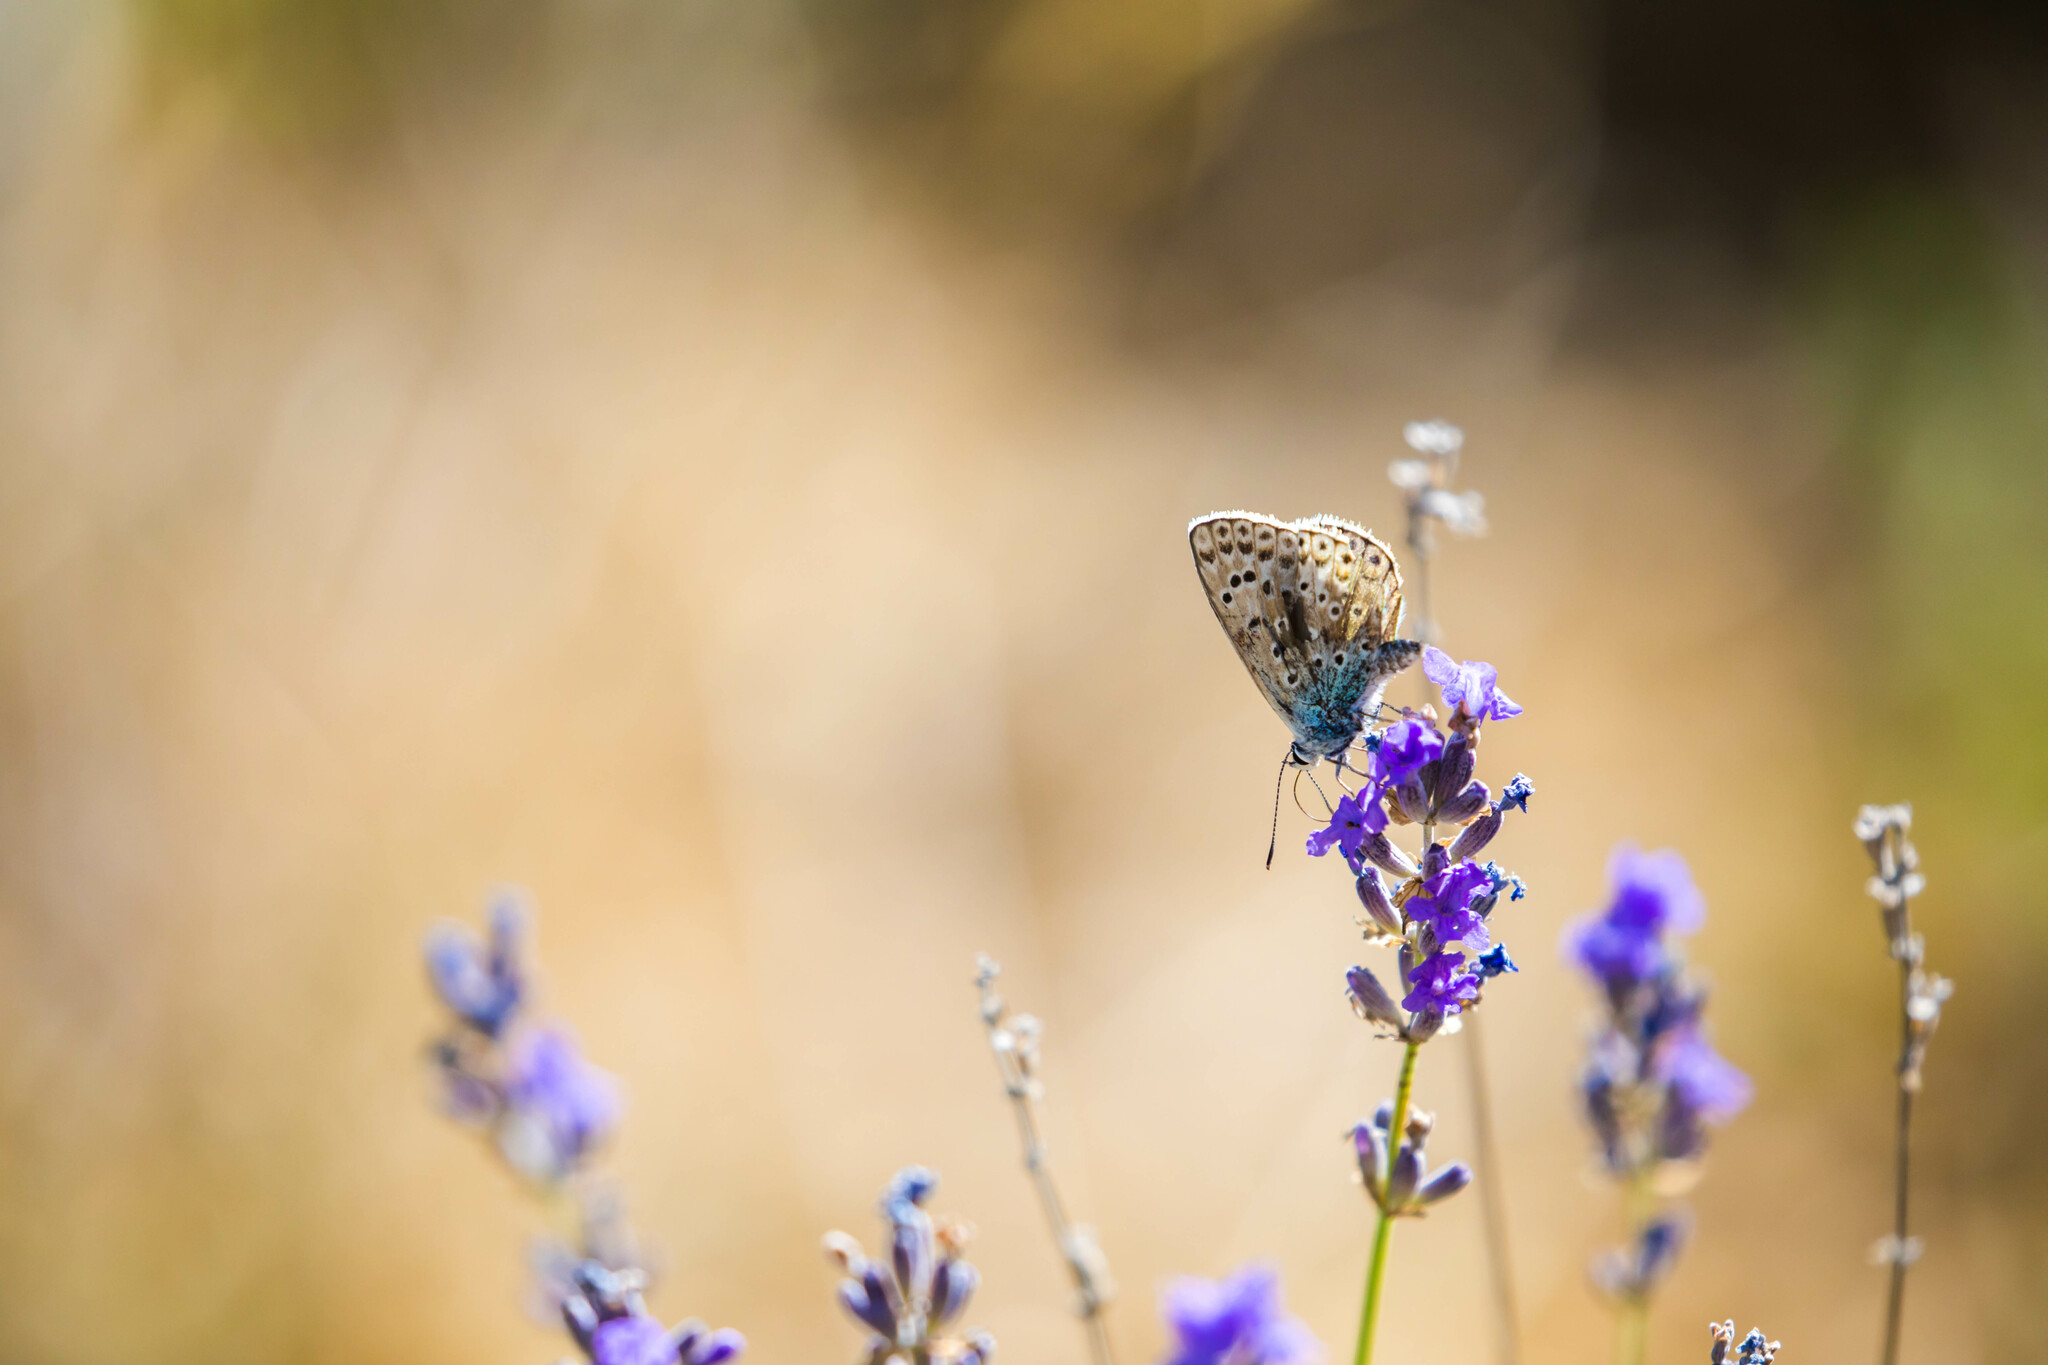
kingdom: Animalia
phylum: Arthropoda
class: Insecta
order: Lepidoptera
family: Lycaenidae
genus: Plebicula
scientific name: Plebicula escheri
